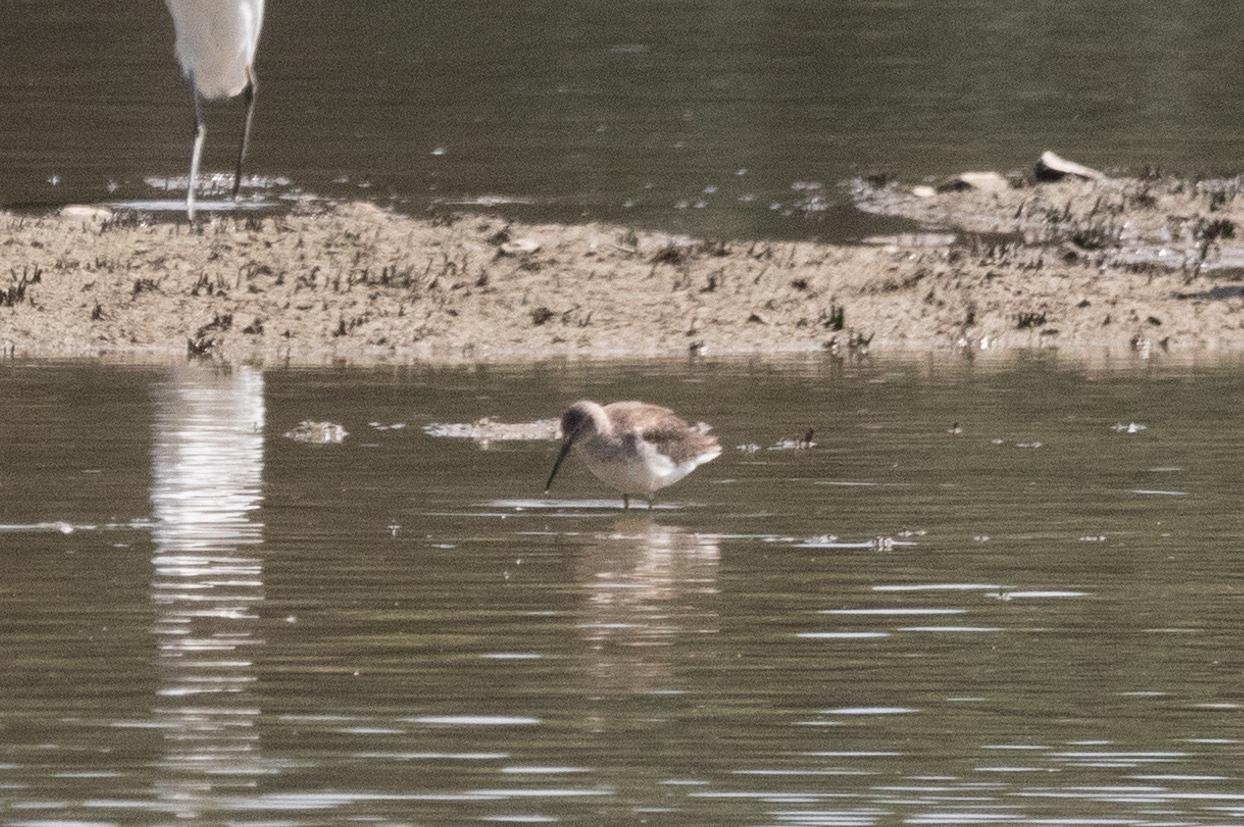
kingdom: Animalia
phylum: Chordata
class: Aves
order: Charadriiformes
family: Scolopacidae
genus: Tringa
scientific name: Tringa totanus
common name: Common redshank
